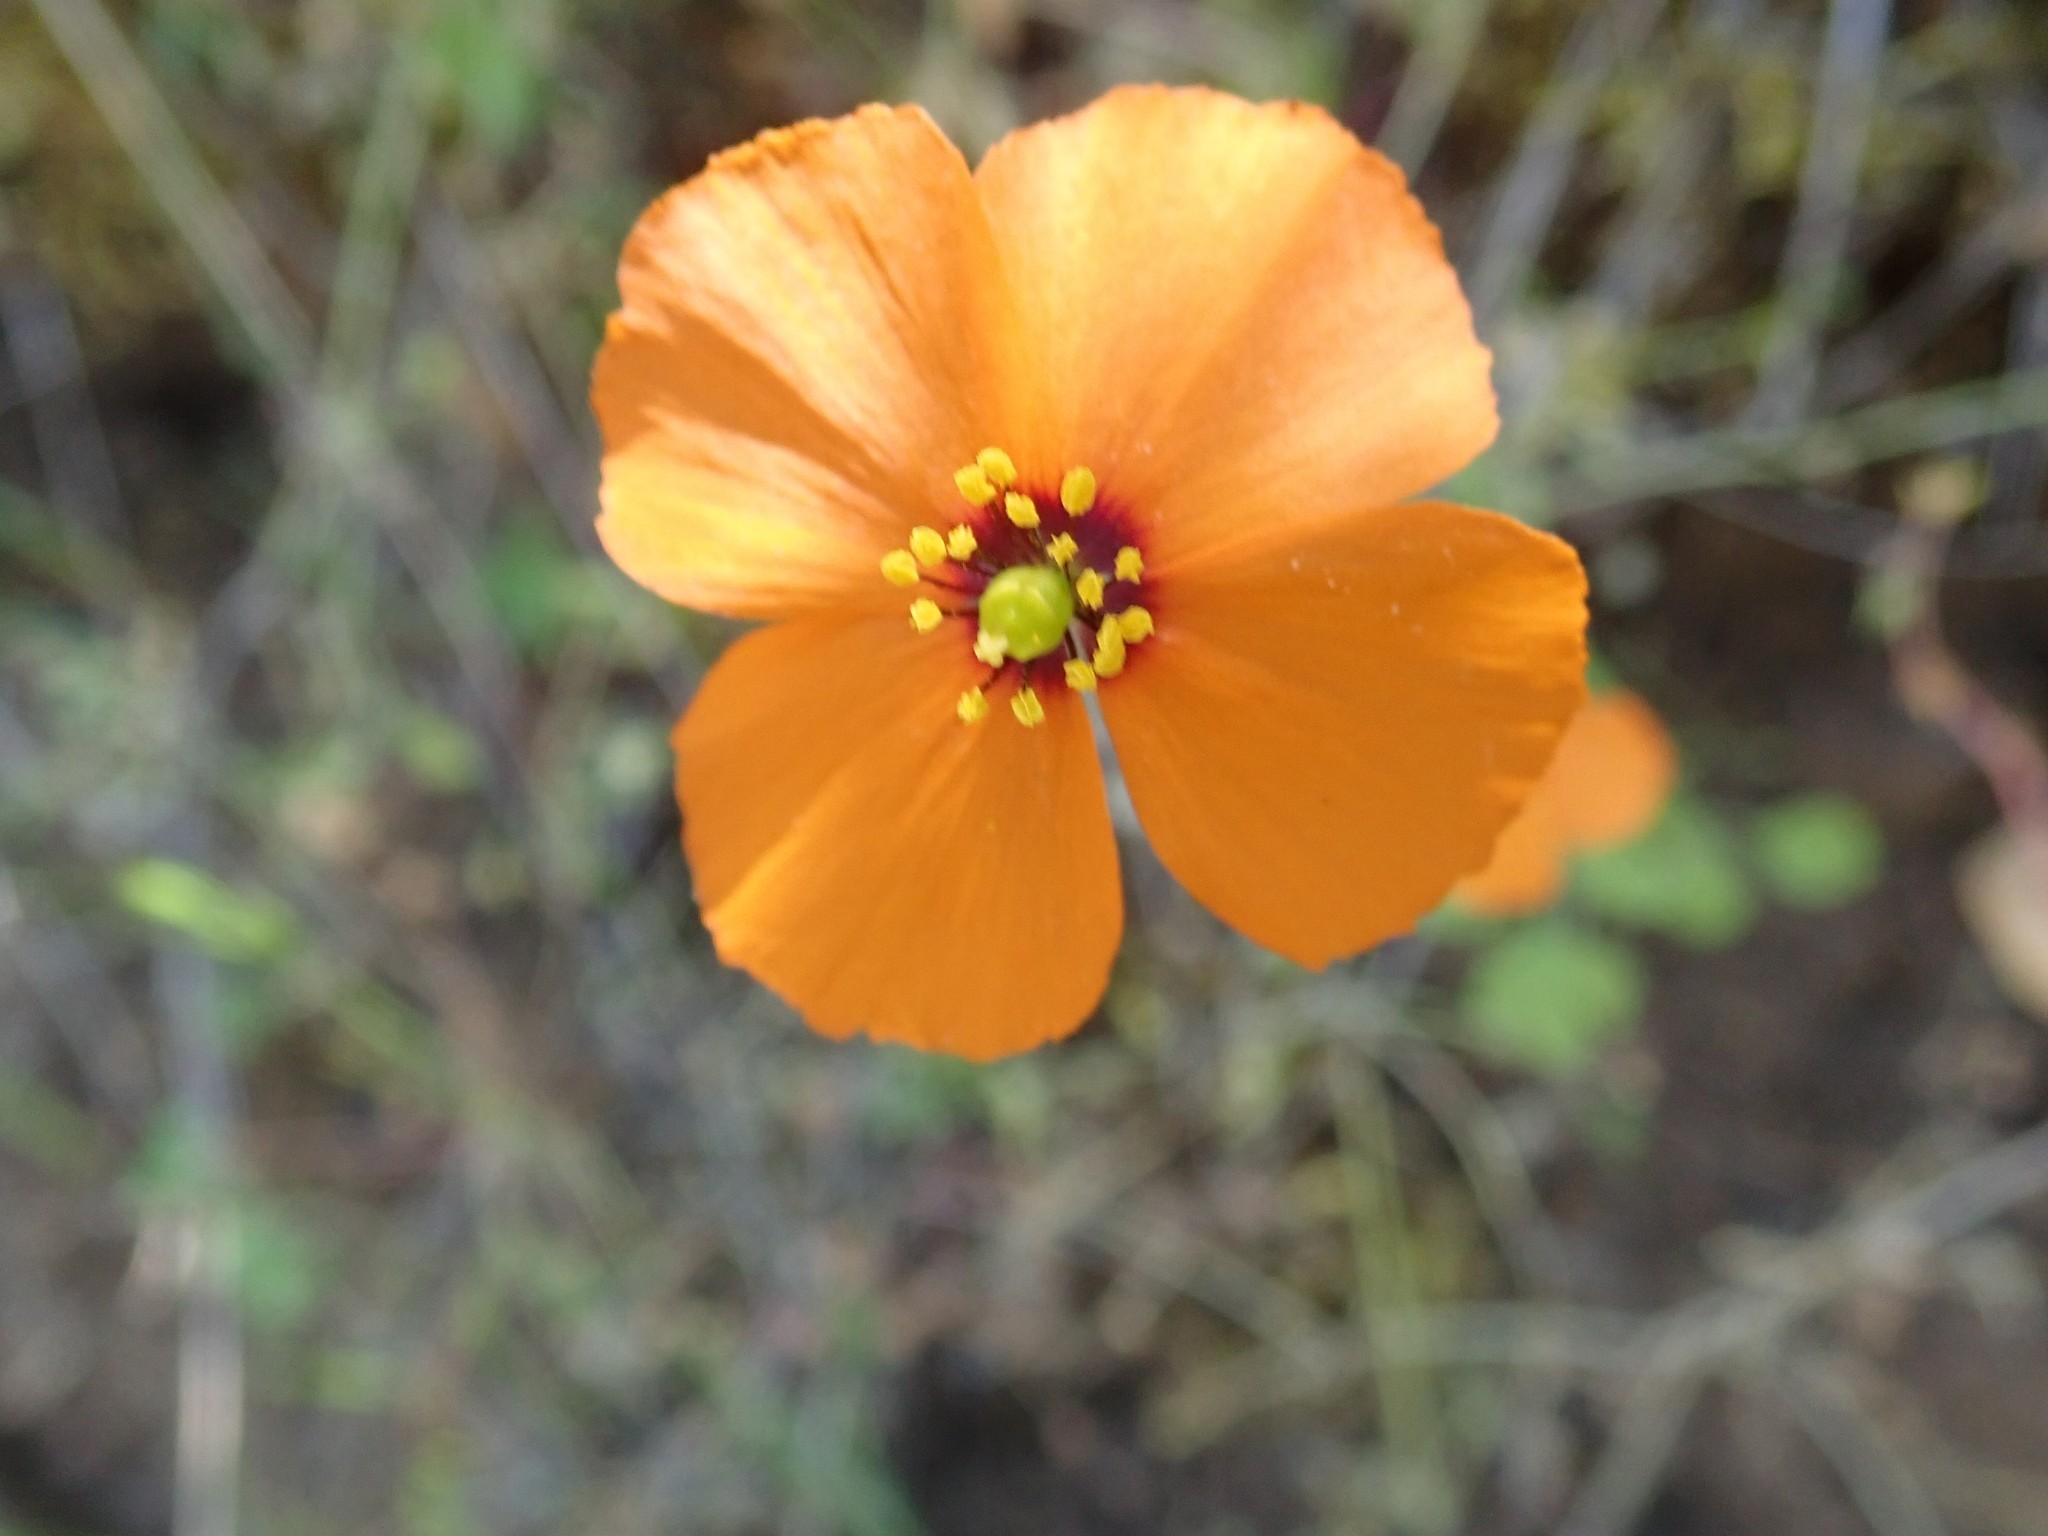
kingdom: Plantae
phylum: Tracheophyta
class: Magnoliopsida
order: Ranunculales
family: Papaveraceae
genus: Stylomecon
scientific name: Stylomecon heterophylla
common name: Flaming-poppy
